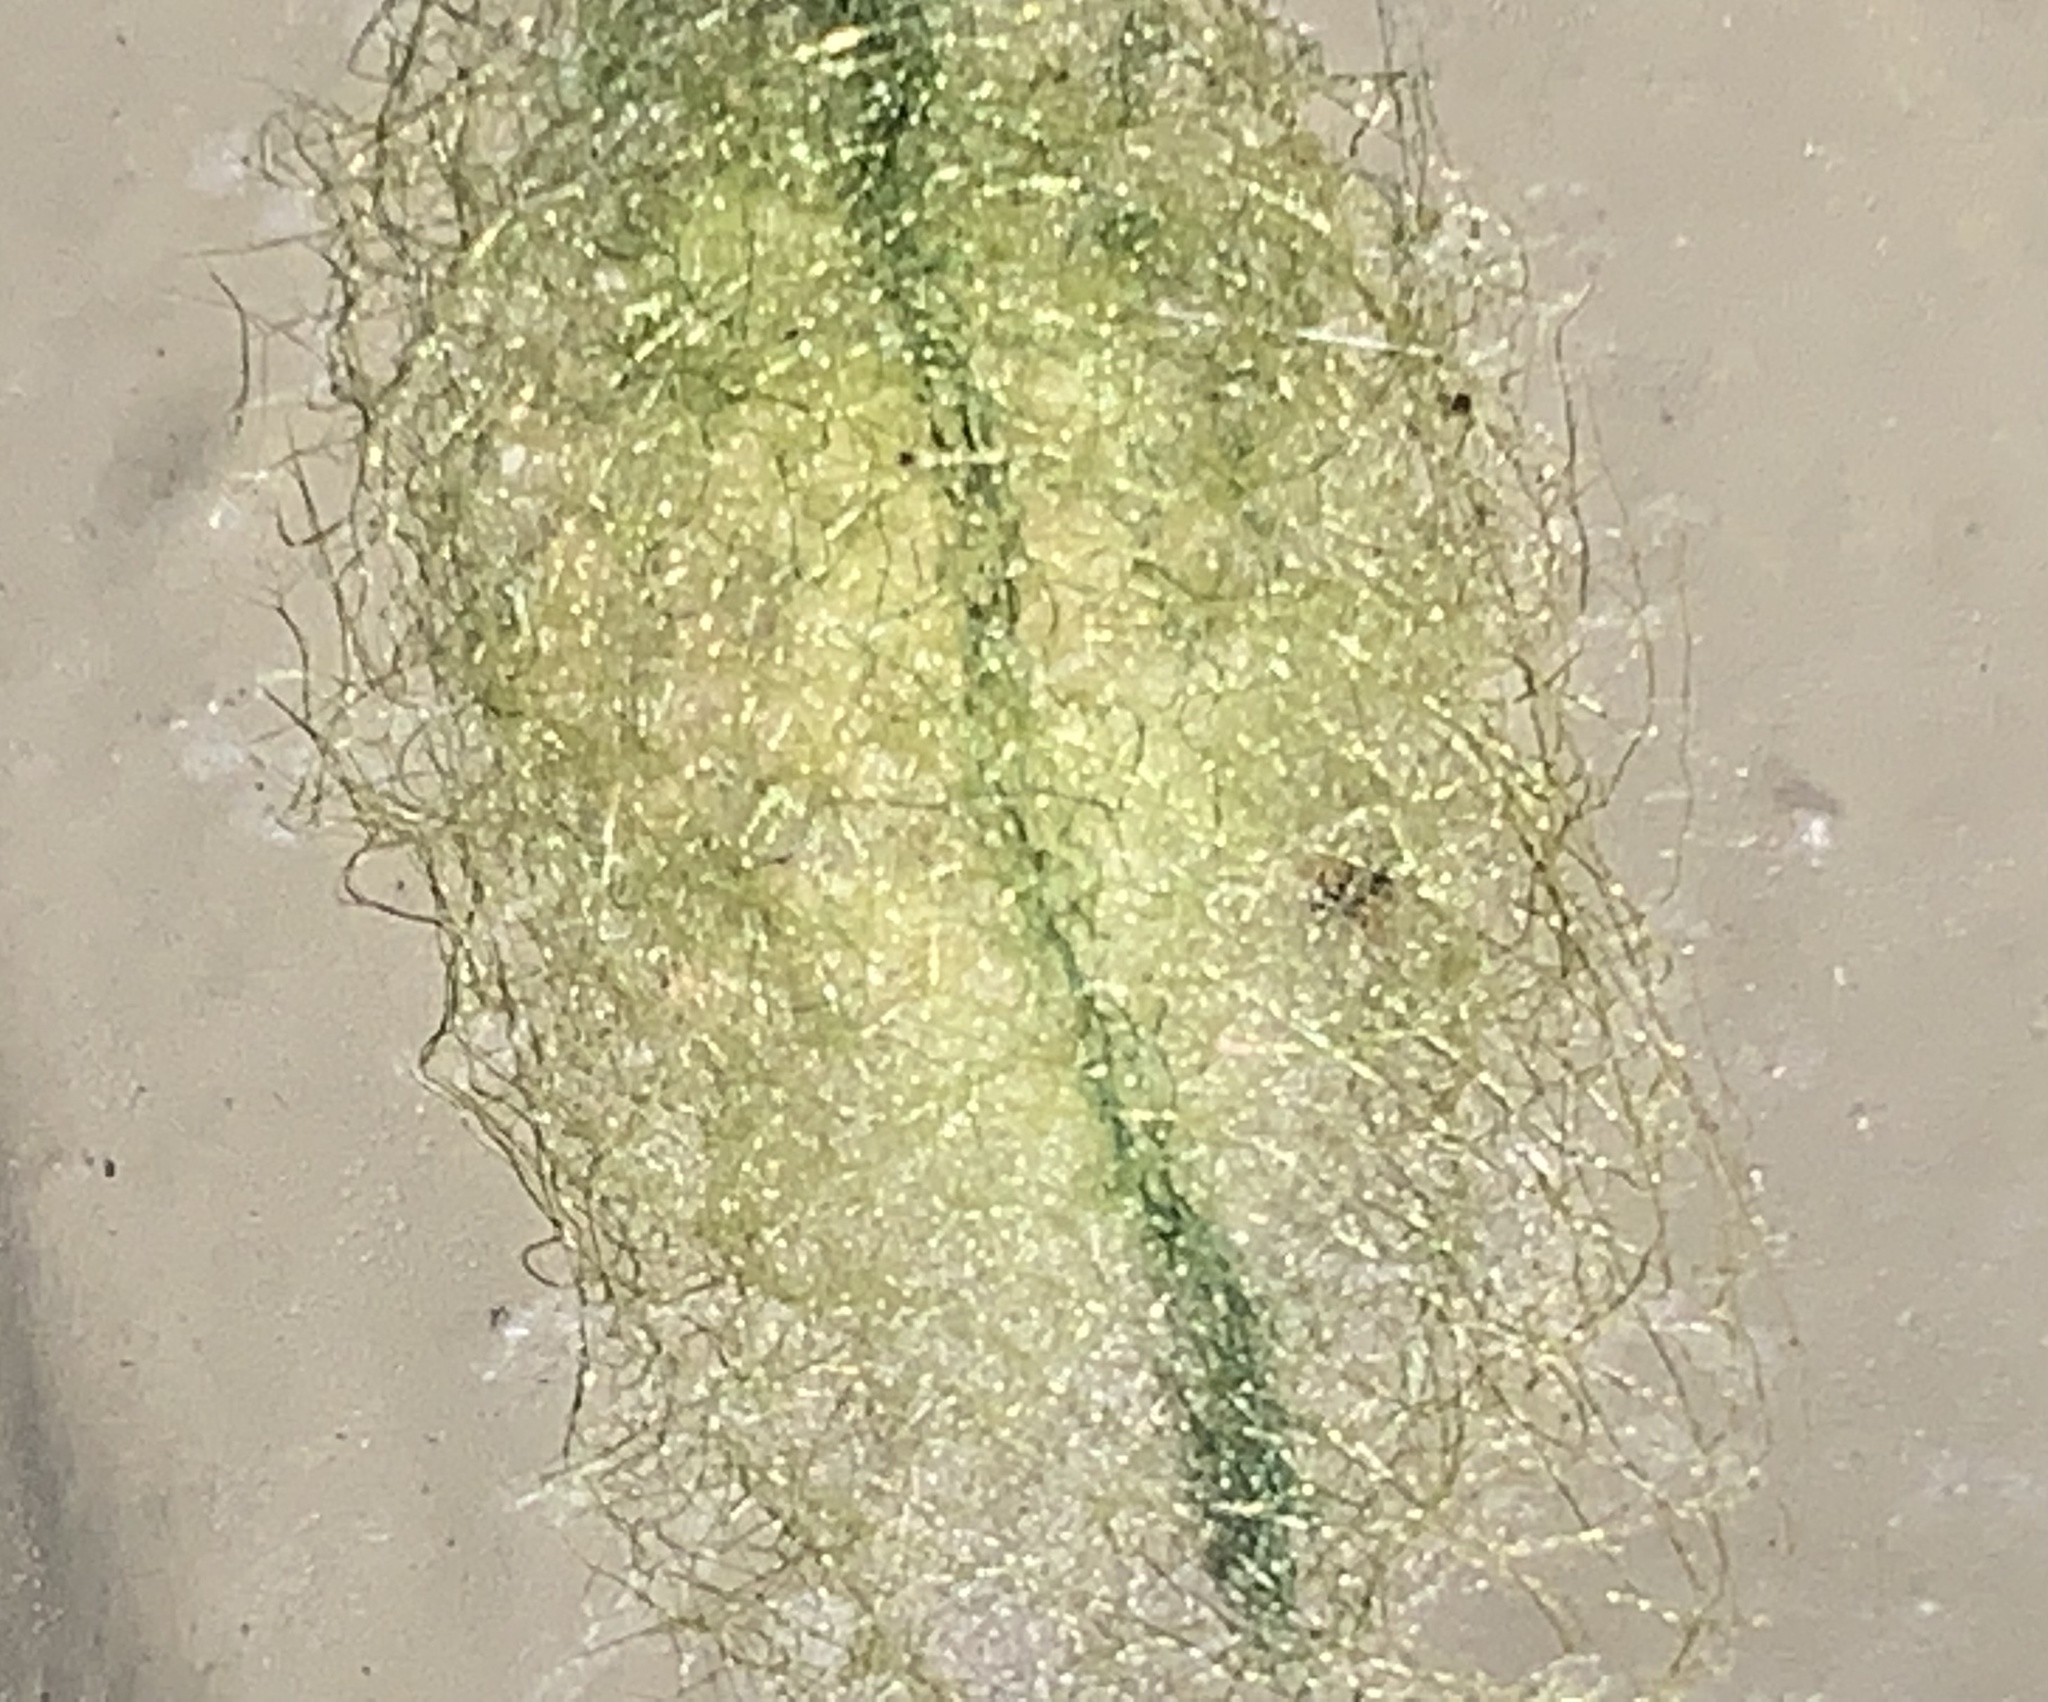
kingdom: Animalia
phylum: Arthropoda
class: Arachnida
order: Araneae
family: Araneidae
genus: Gasteracantha
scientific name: Gasteracantha cancriformis
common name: Orb weavers
